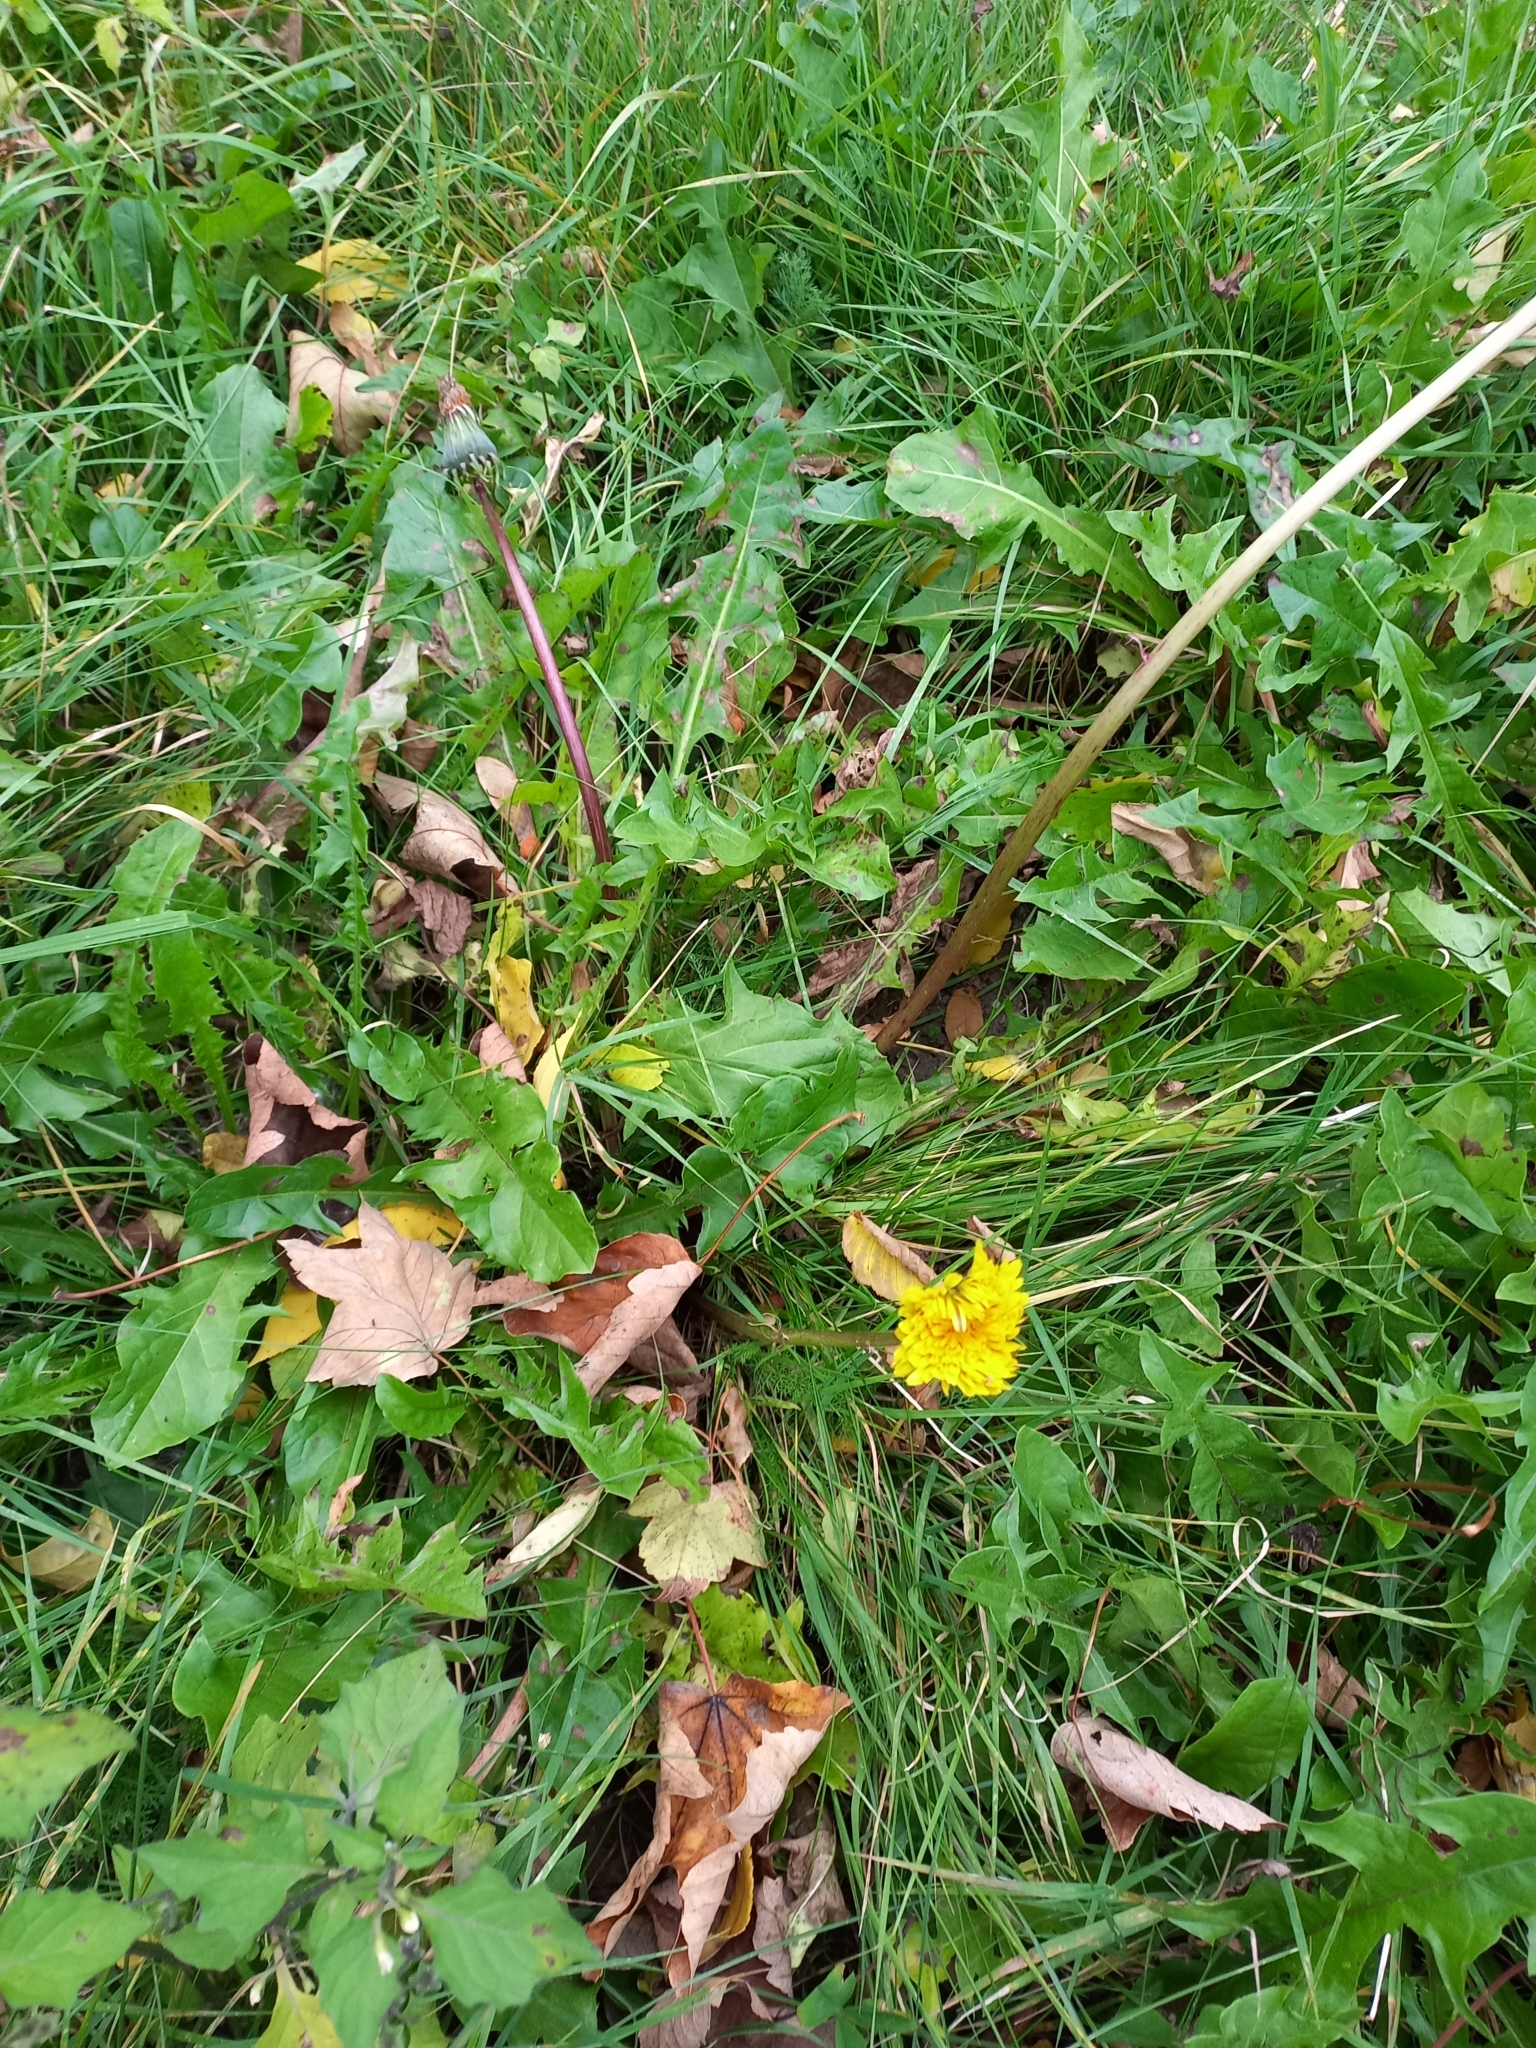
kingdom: Plantae
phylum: Tracheophyta
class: Magnoliopsida
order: Asterales
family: Asteraceae
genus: Taraxacum
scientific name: Taraxacum officinale
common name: Common dandelion
